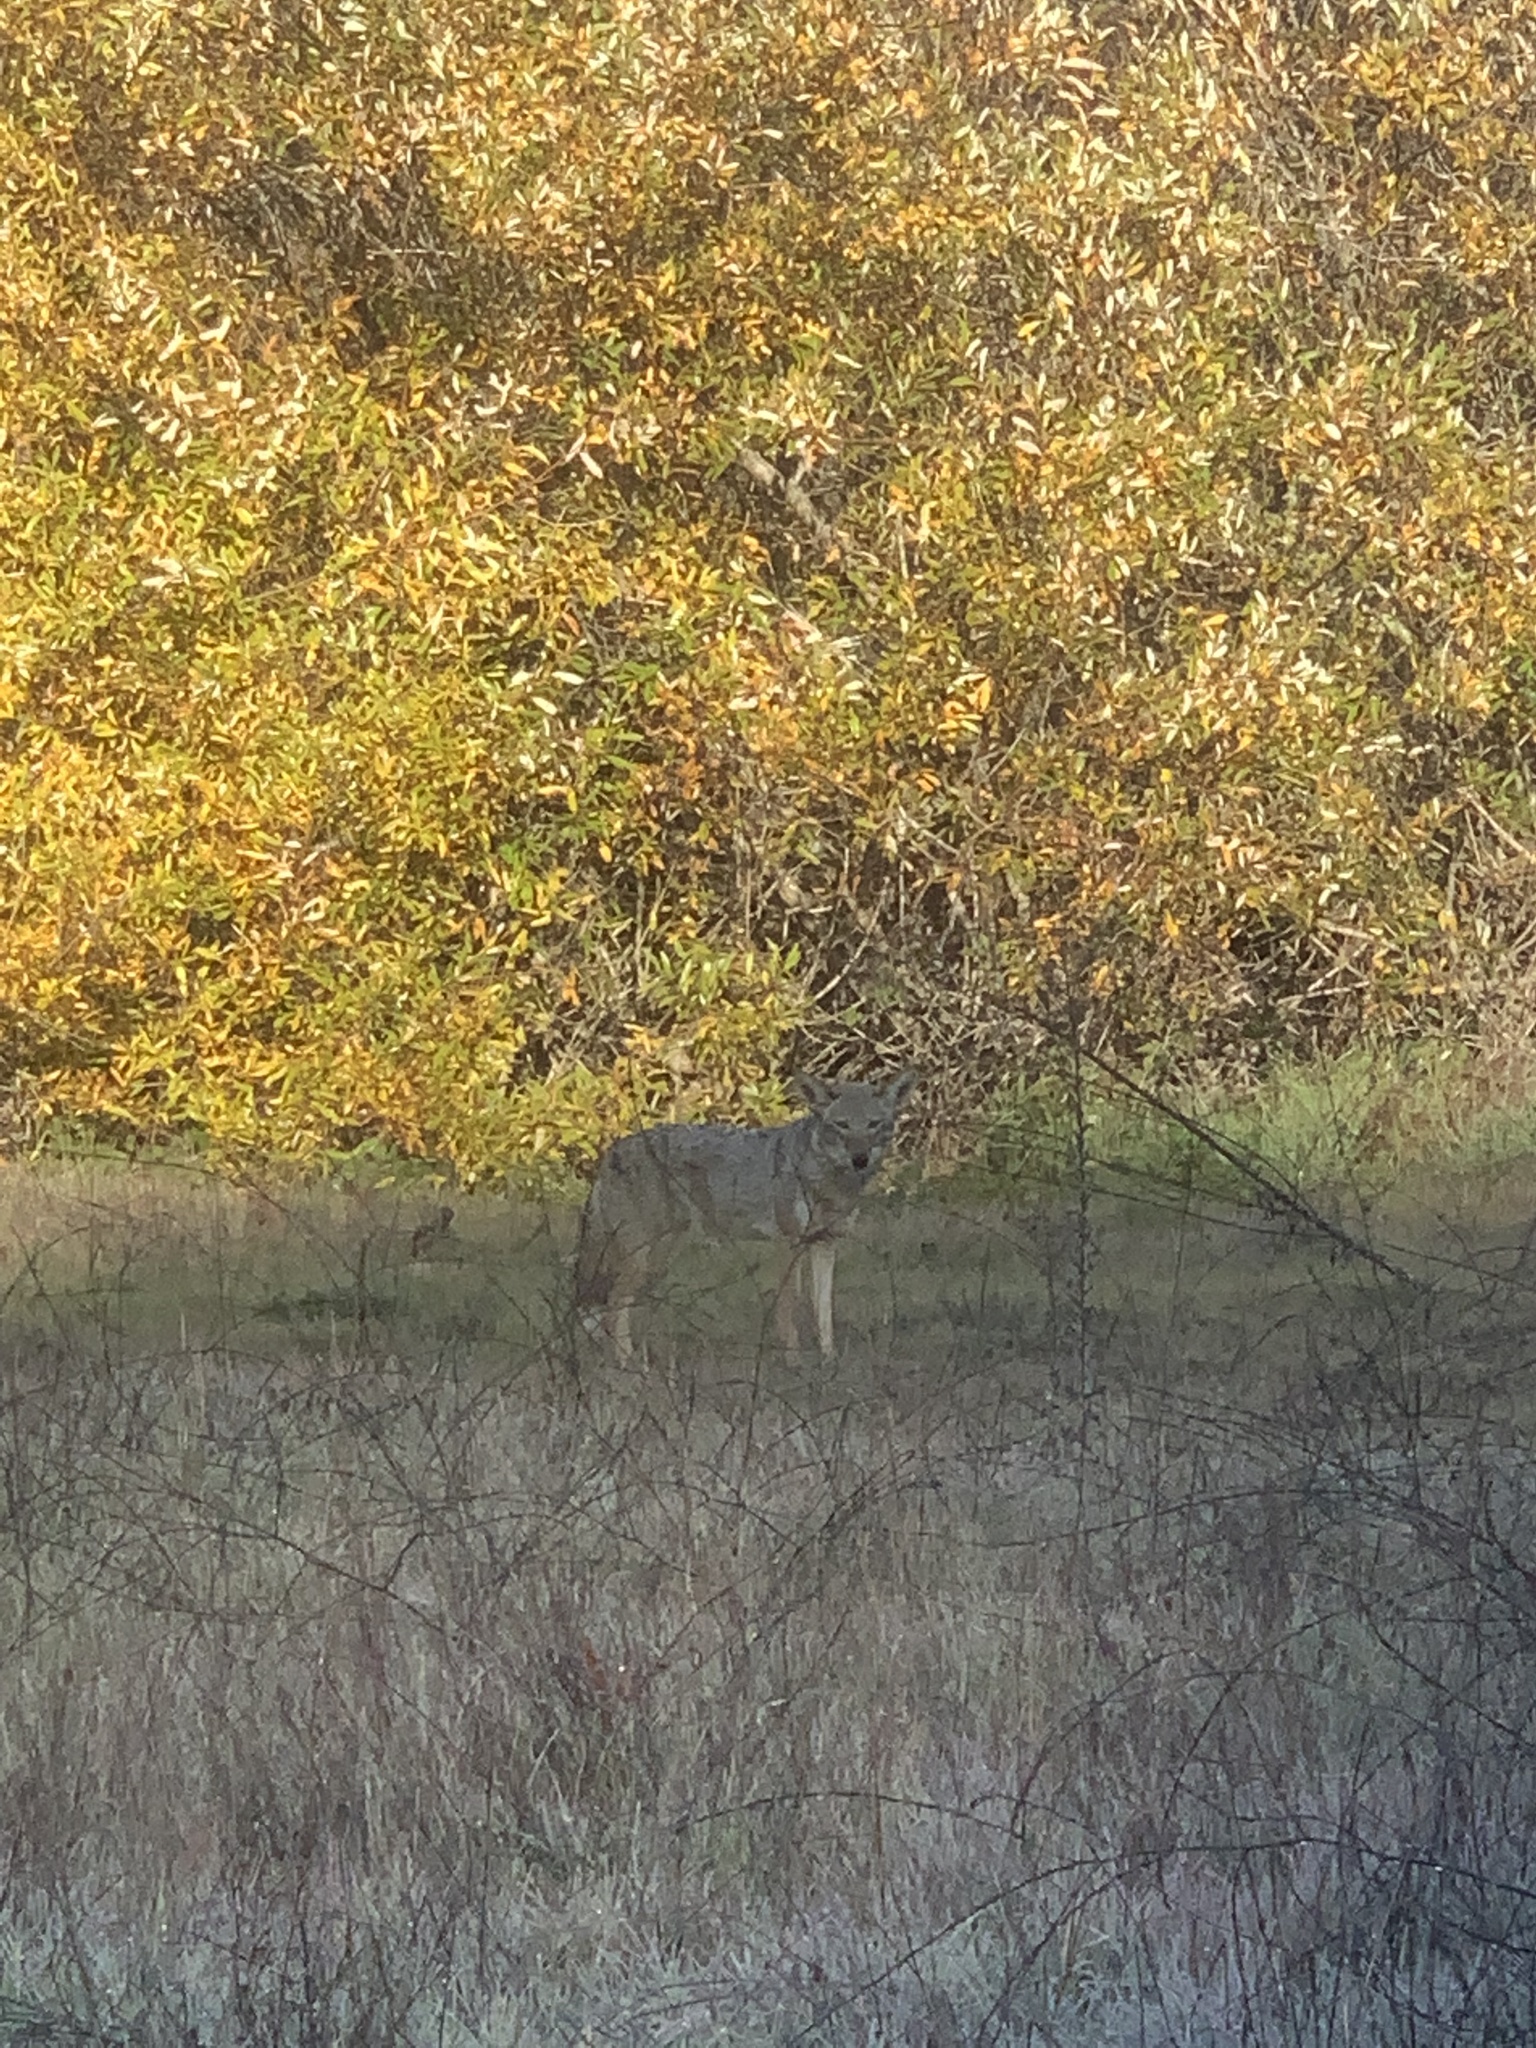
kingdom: Animalia
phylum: Chordata
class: Mammalia
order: Carnivora
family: Canidae
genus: Canis
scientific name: Canis latrans
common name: Coyote
